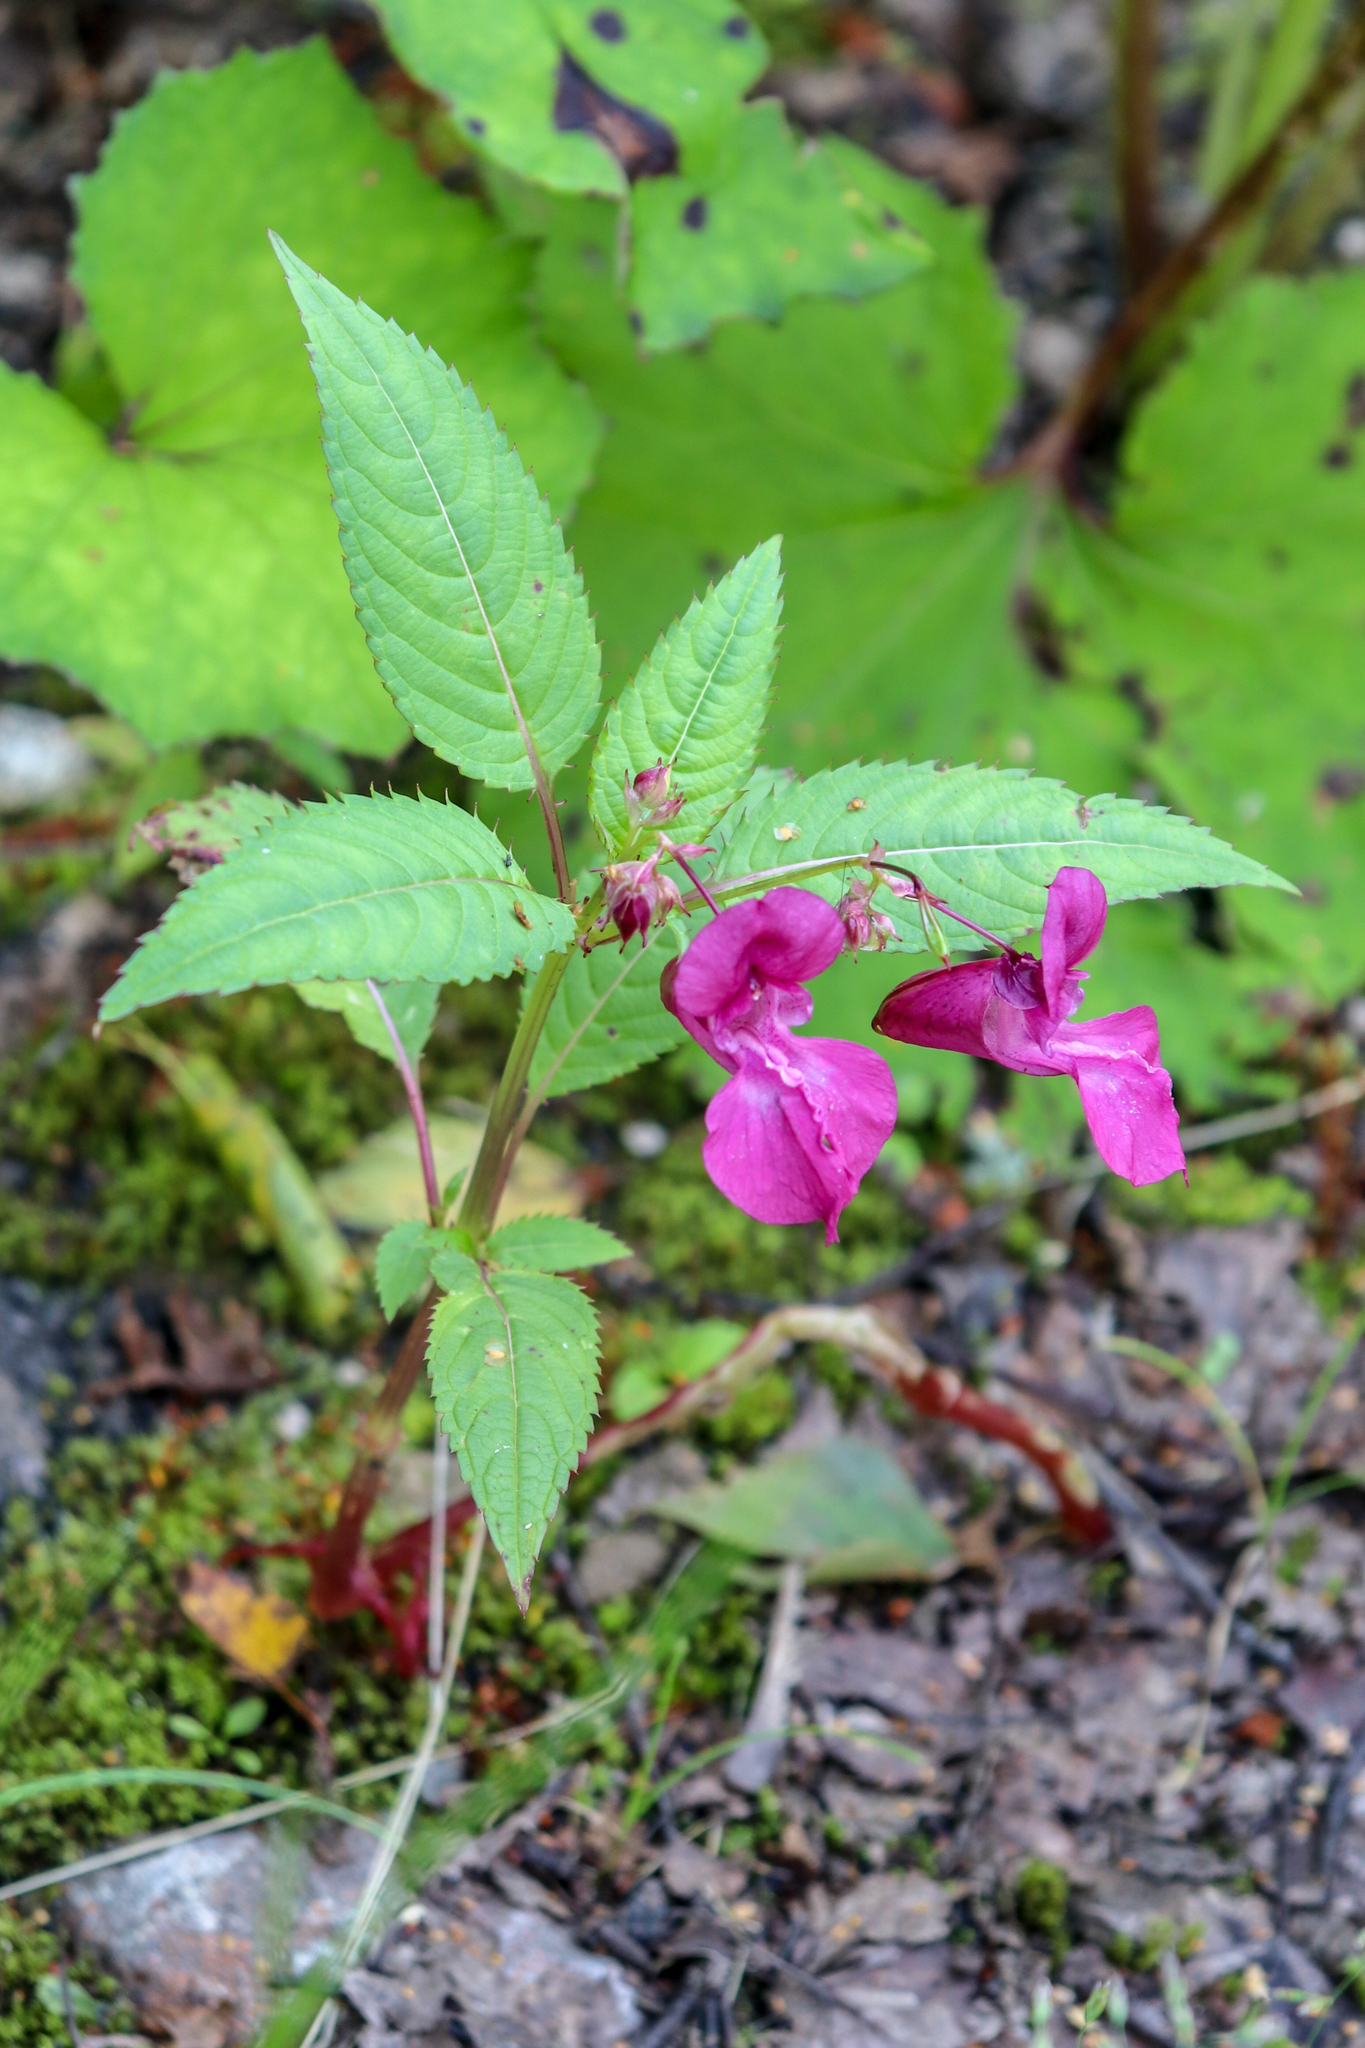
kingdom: Plantae
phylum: Tracheophyta
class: Magnoliopsida
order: Ericales
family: Balsaminaceae
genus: Impatiens
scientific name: Impatiens glandulifera
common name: Himalayan balsam
